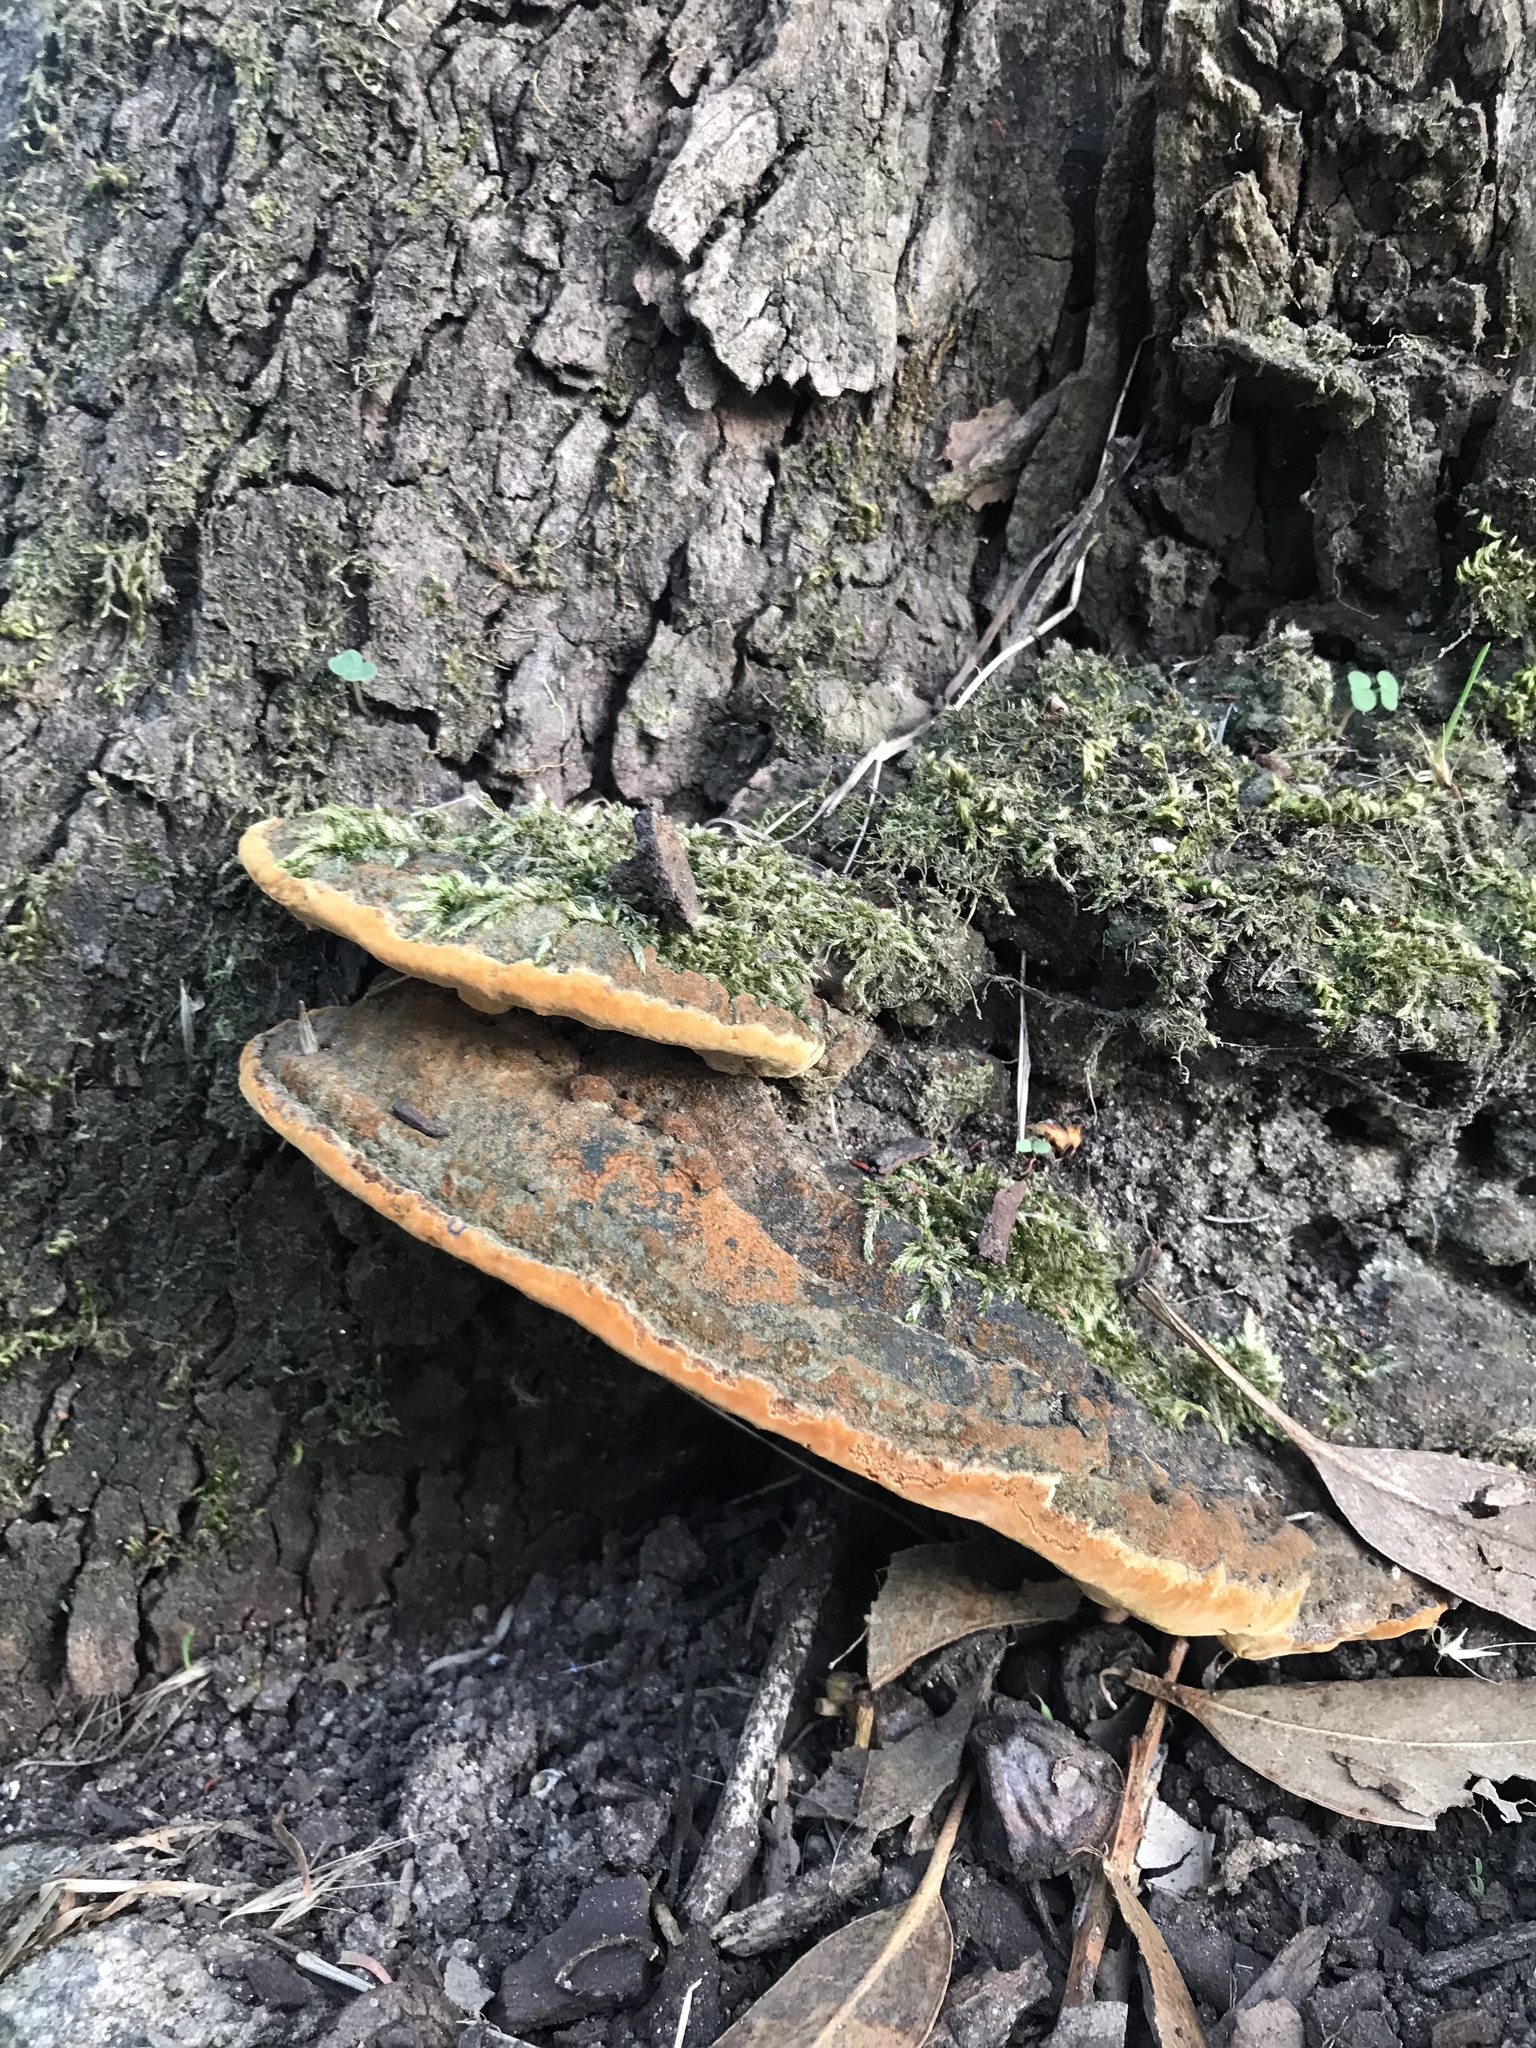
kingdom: Fungi
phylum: Basidiomycota
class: Agaricomycetes
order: Hymenochaetales
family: Hymenochaetaceae
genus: Fuscoporia
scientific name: Fuscoporia torulosa
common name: Tufted bracket
